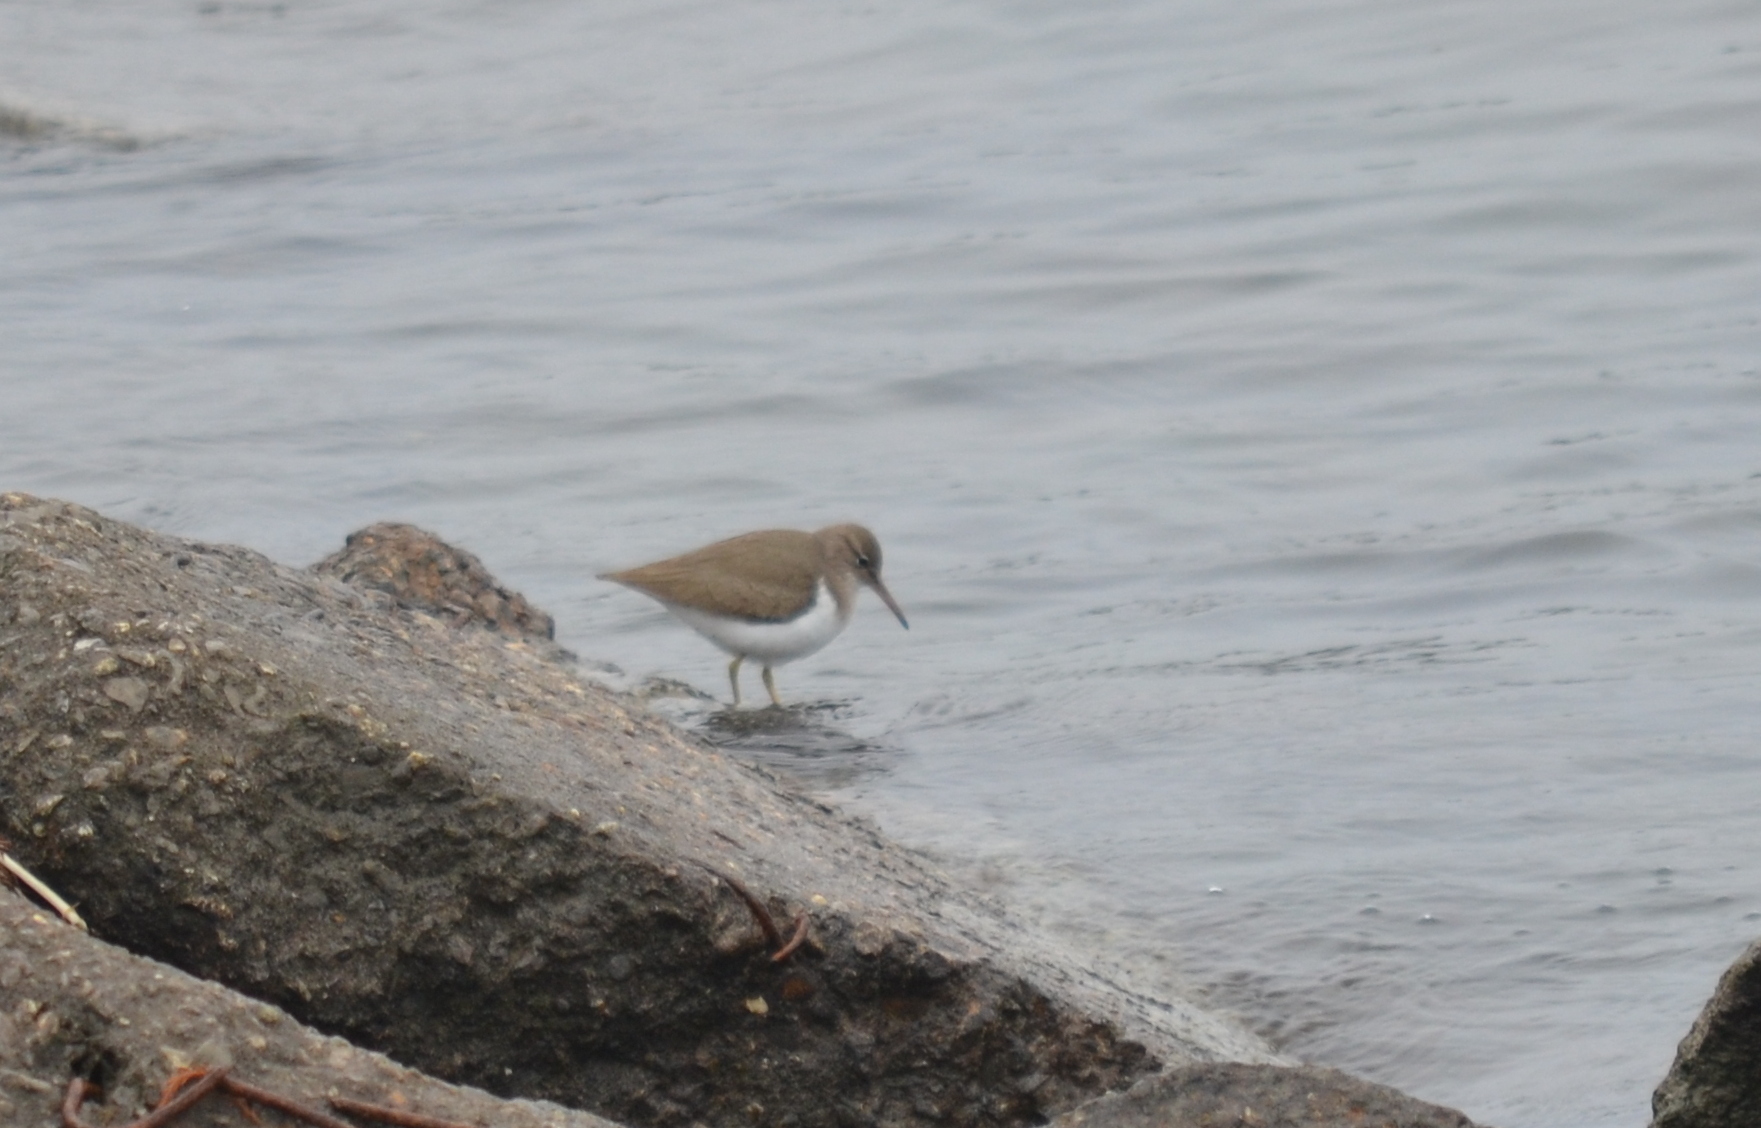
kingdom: Animalia
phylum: Chordata
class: Aves
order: Charadriiformes
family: Scolopacidae
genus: Actitis
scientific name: Actitis macularius
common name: Spotted sandpiper
